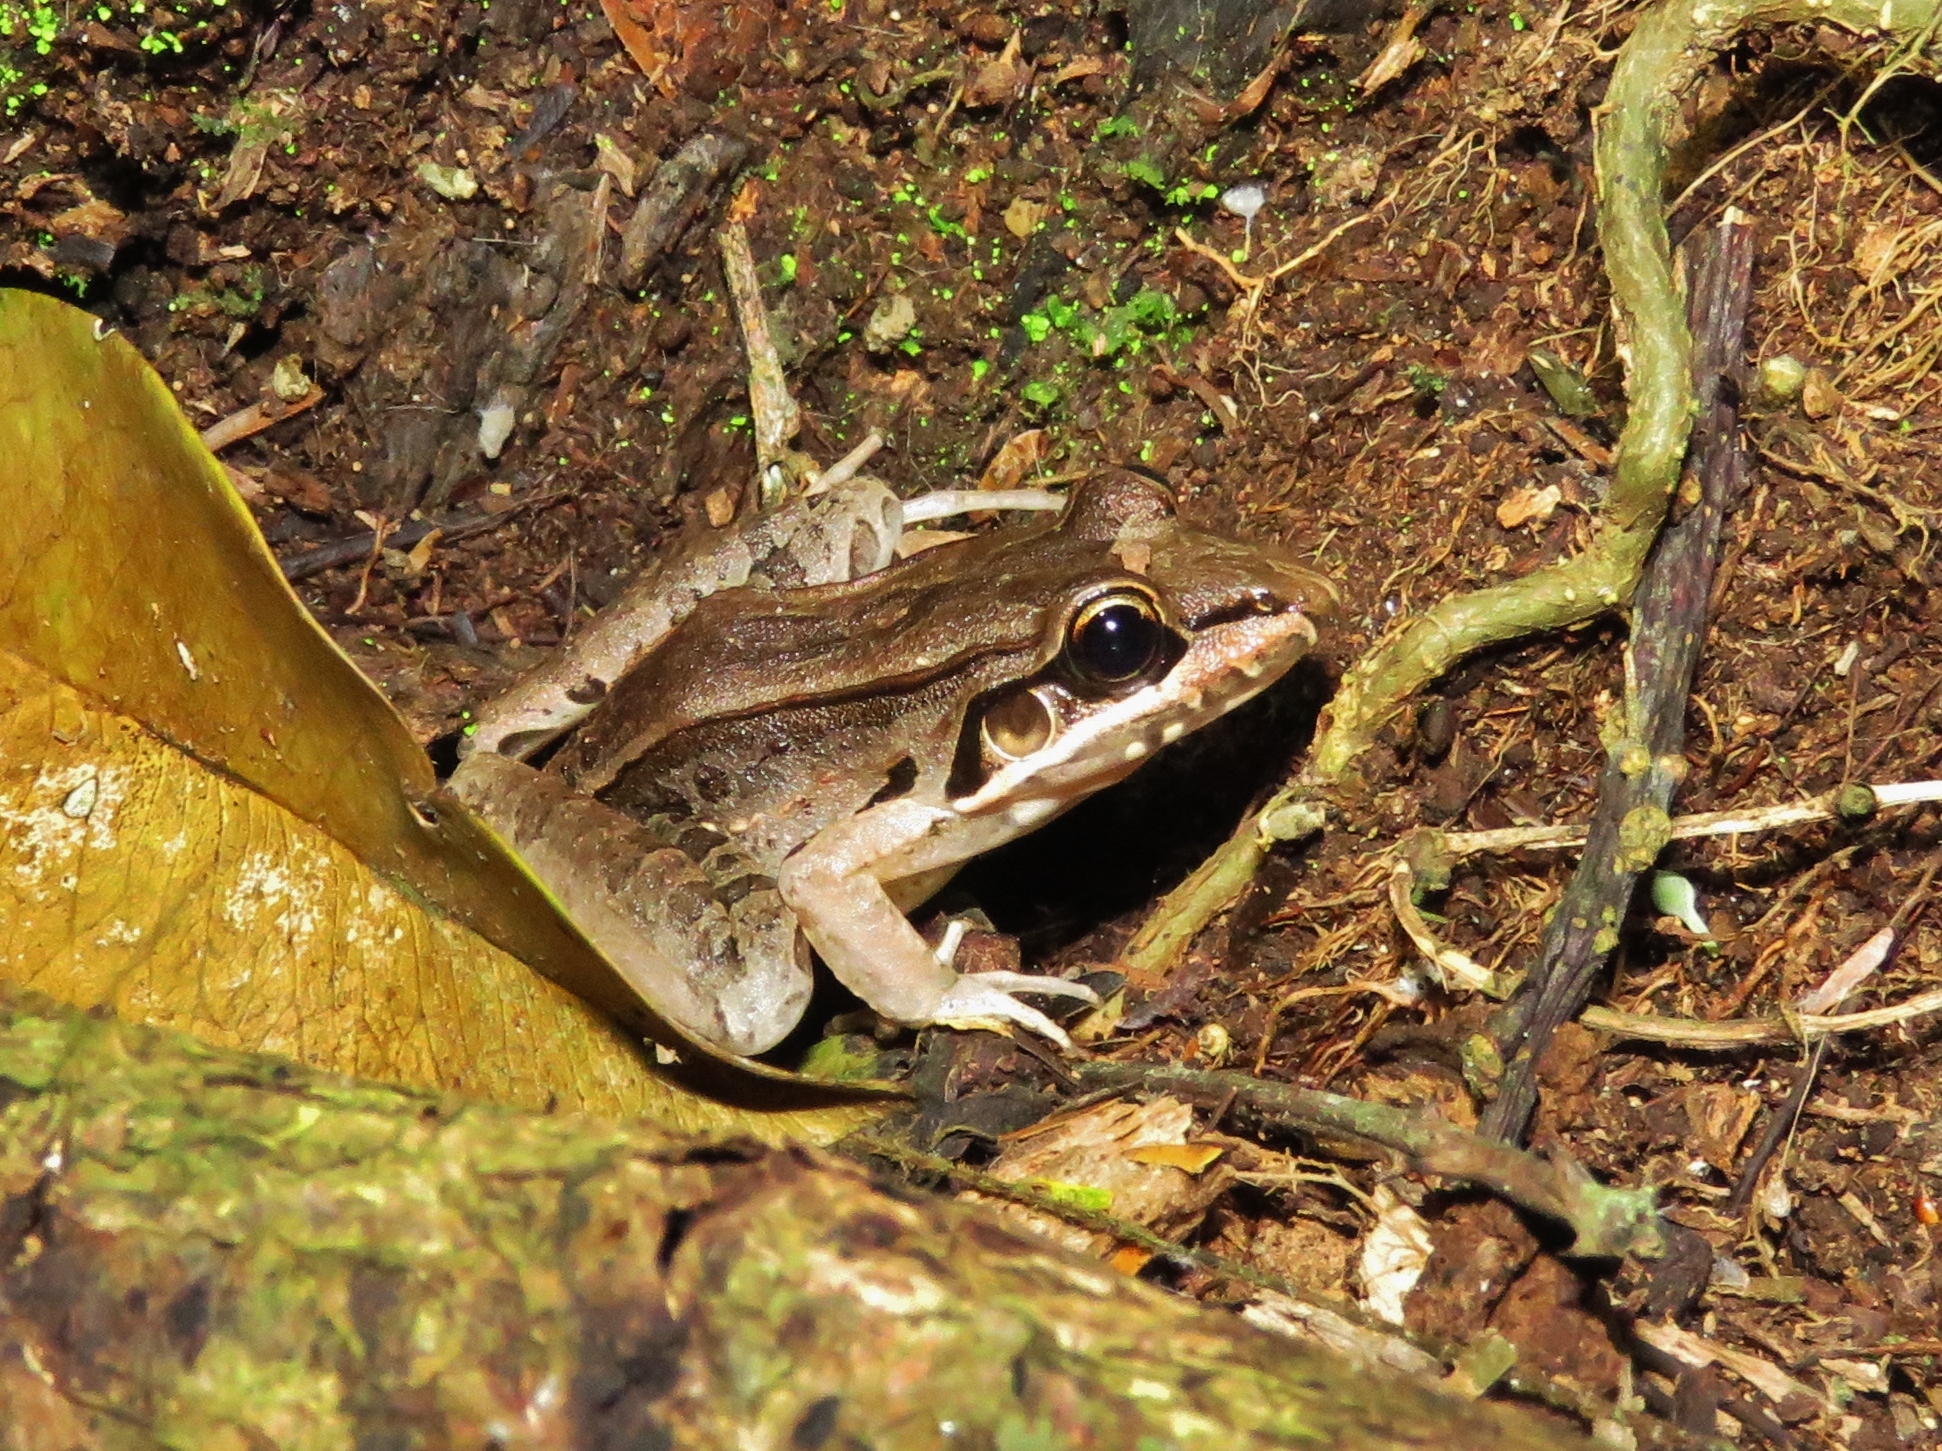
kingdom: Animalia
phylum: Chordata
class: Amphibia
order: Anura
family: Leptodactylidae
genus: Leptodactylus
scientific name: Leptodactylus bolivianus
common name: Bolivian white-lipped frog
